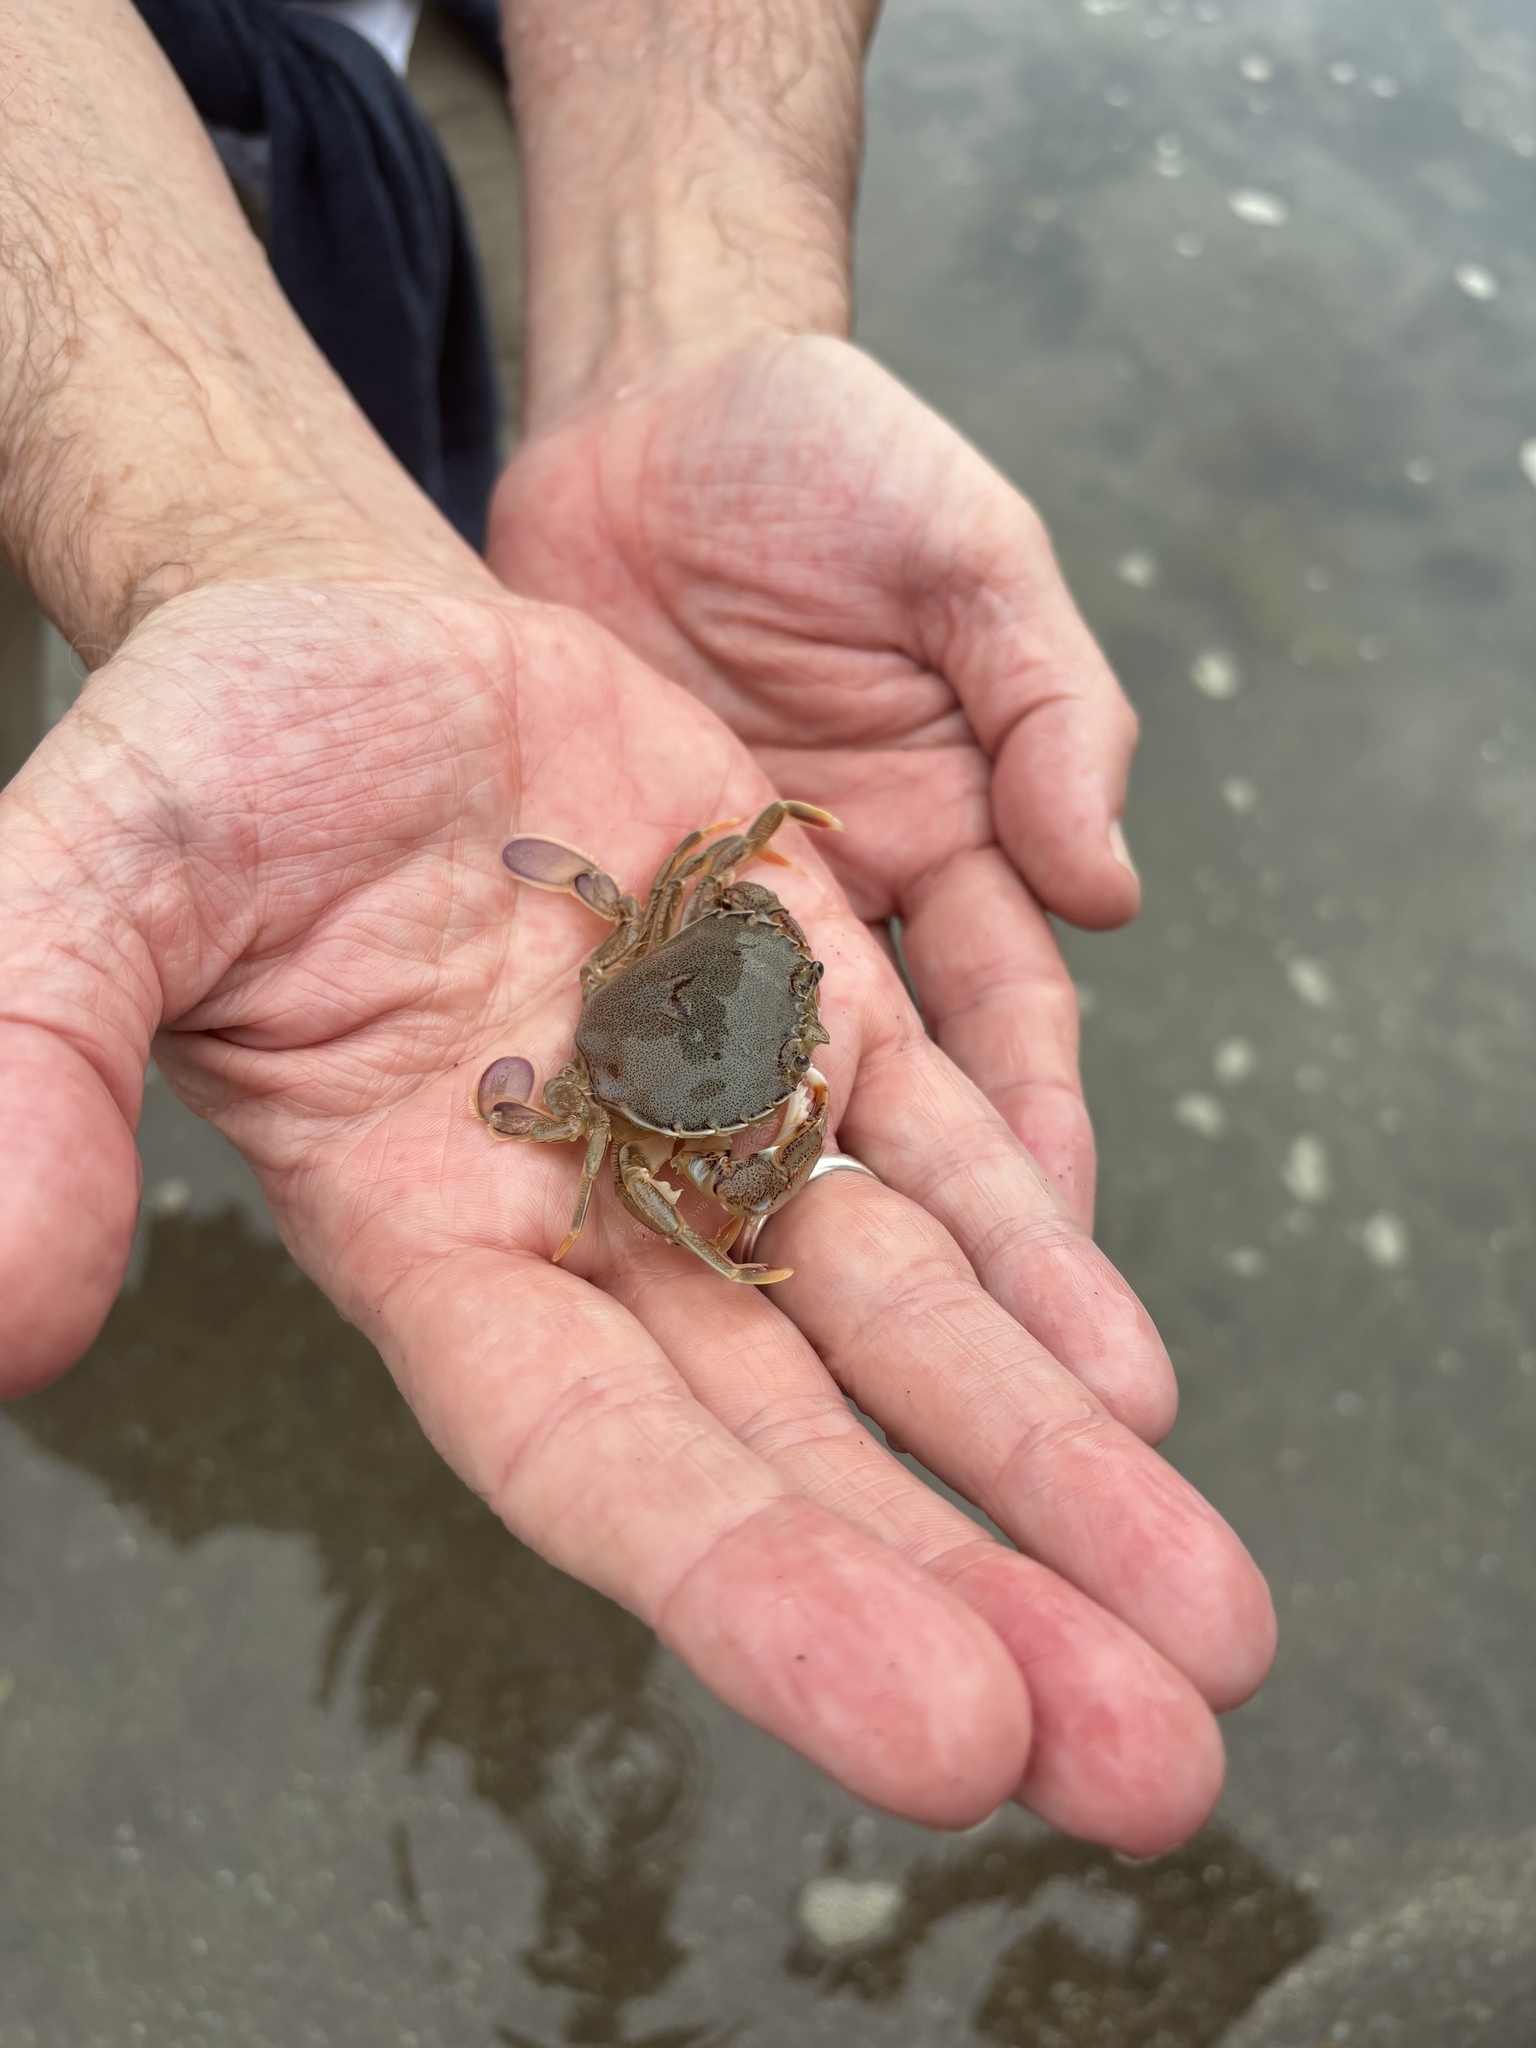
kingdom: Animalia
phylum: Arthropoda
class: Malacostraca
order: Decapoda
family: Ovalipidae
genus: Ovalipes
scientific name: Ovalipes catharus
